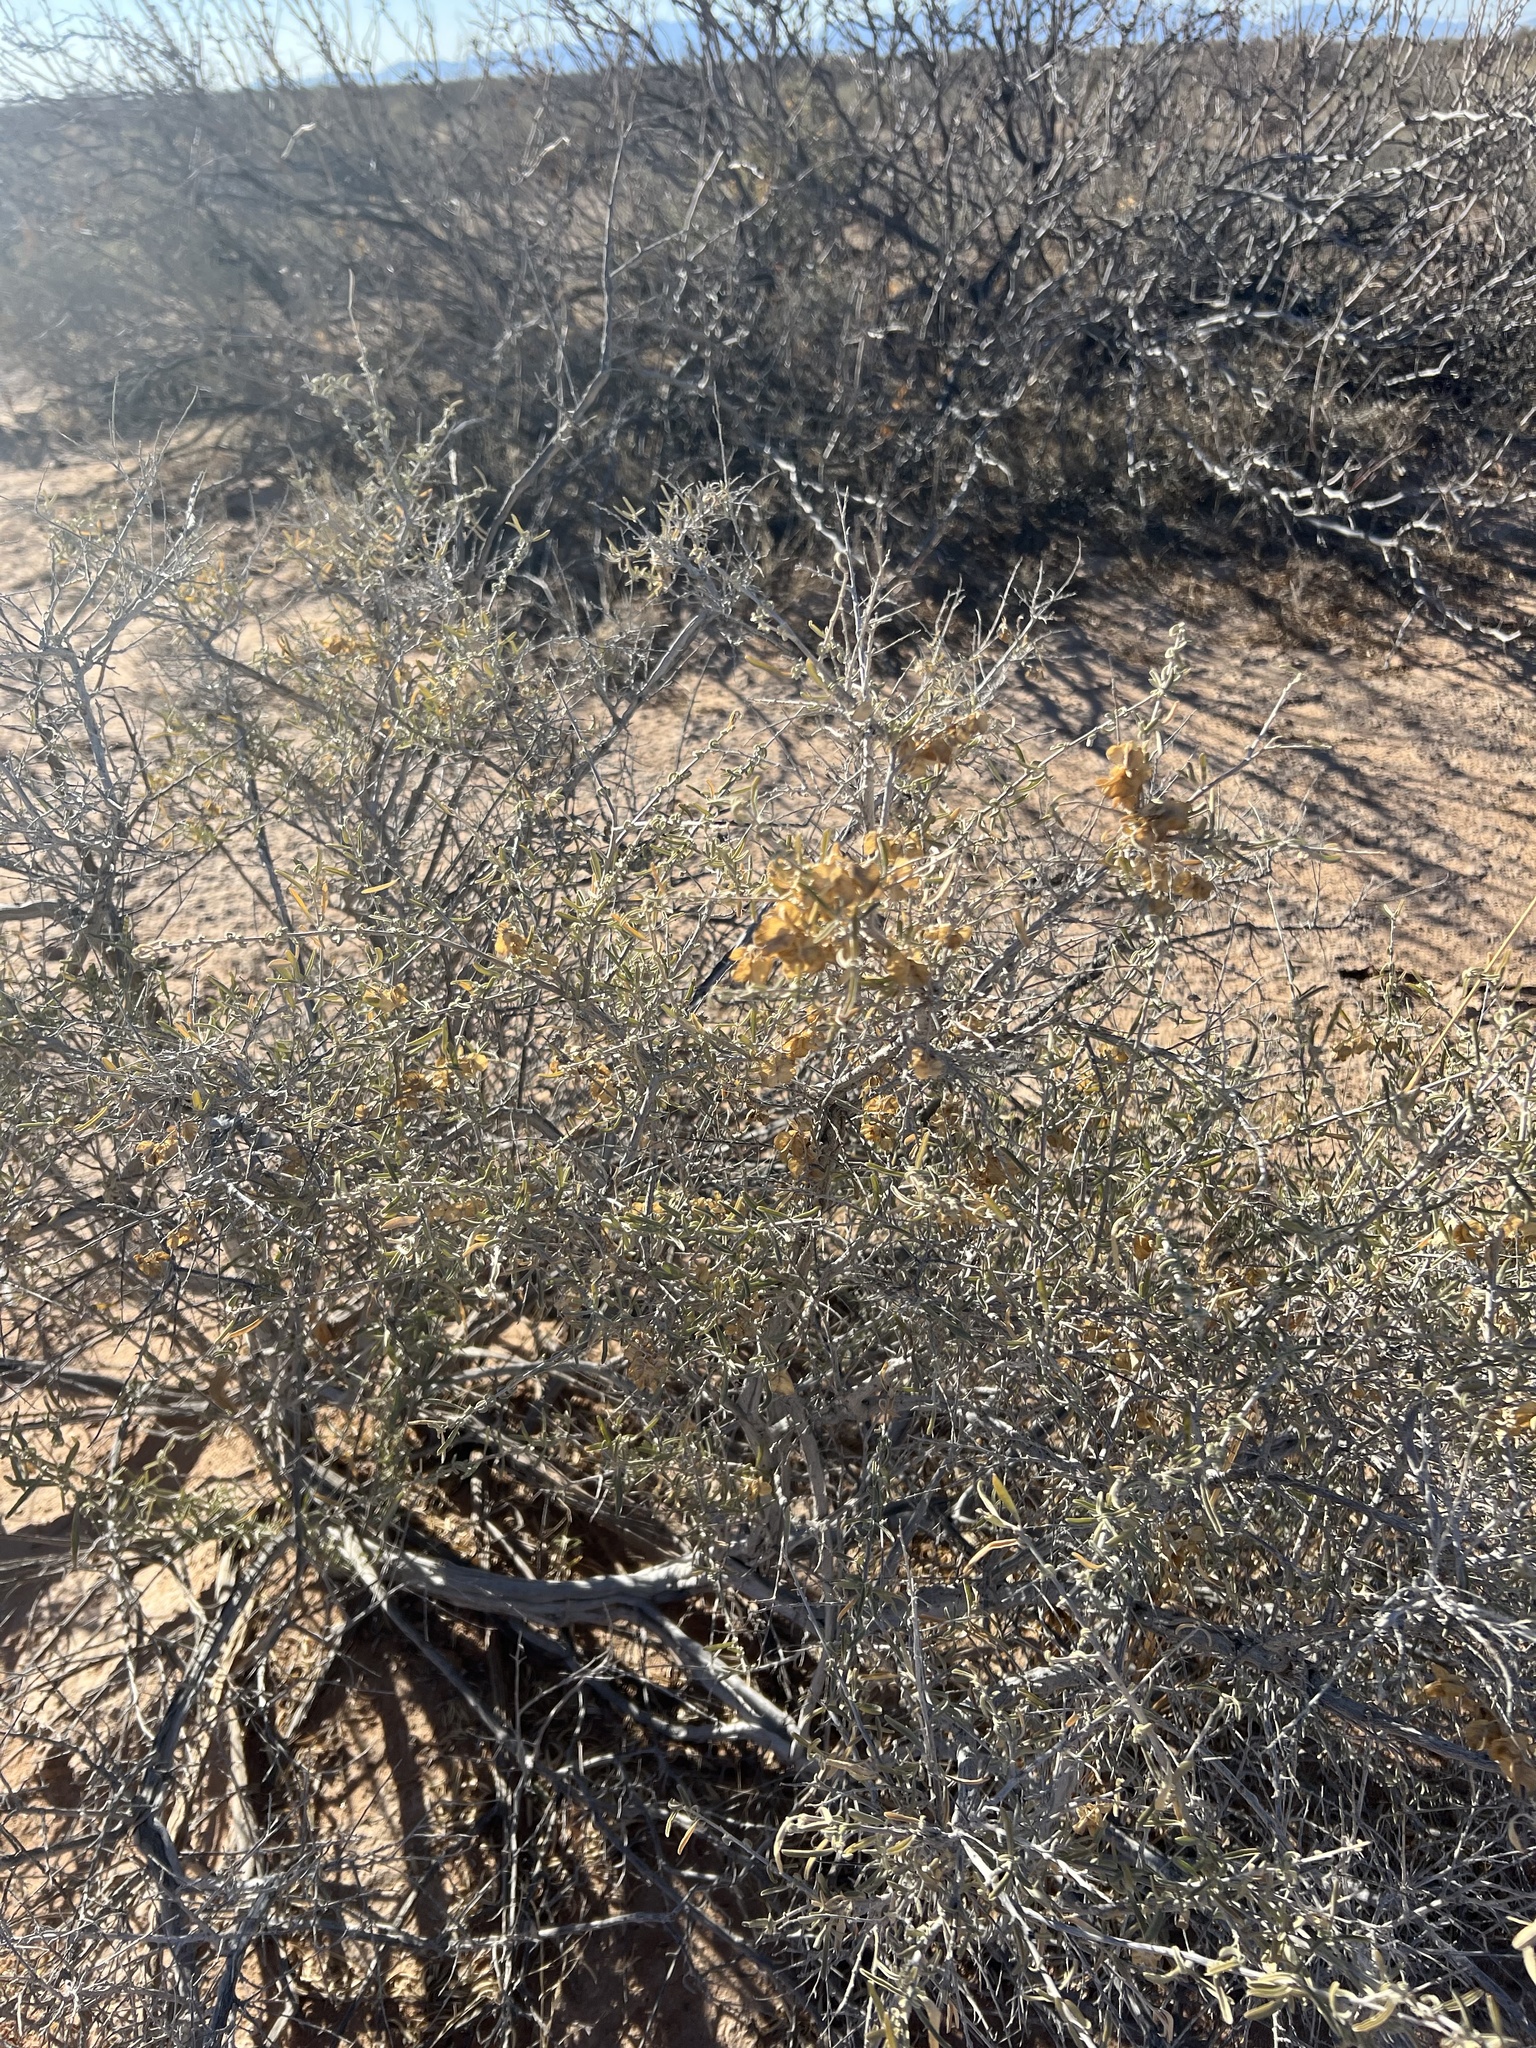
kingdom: Plantae
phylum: Tracheophyta
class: Magnoliopsida
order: Caryophyllales
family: Amaranthaceae
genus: Atriplex
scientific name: Atriplex canescens
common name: Four-wing saltbush
